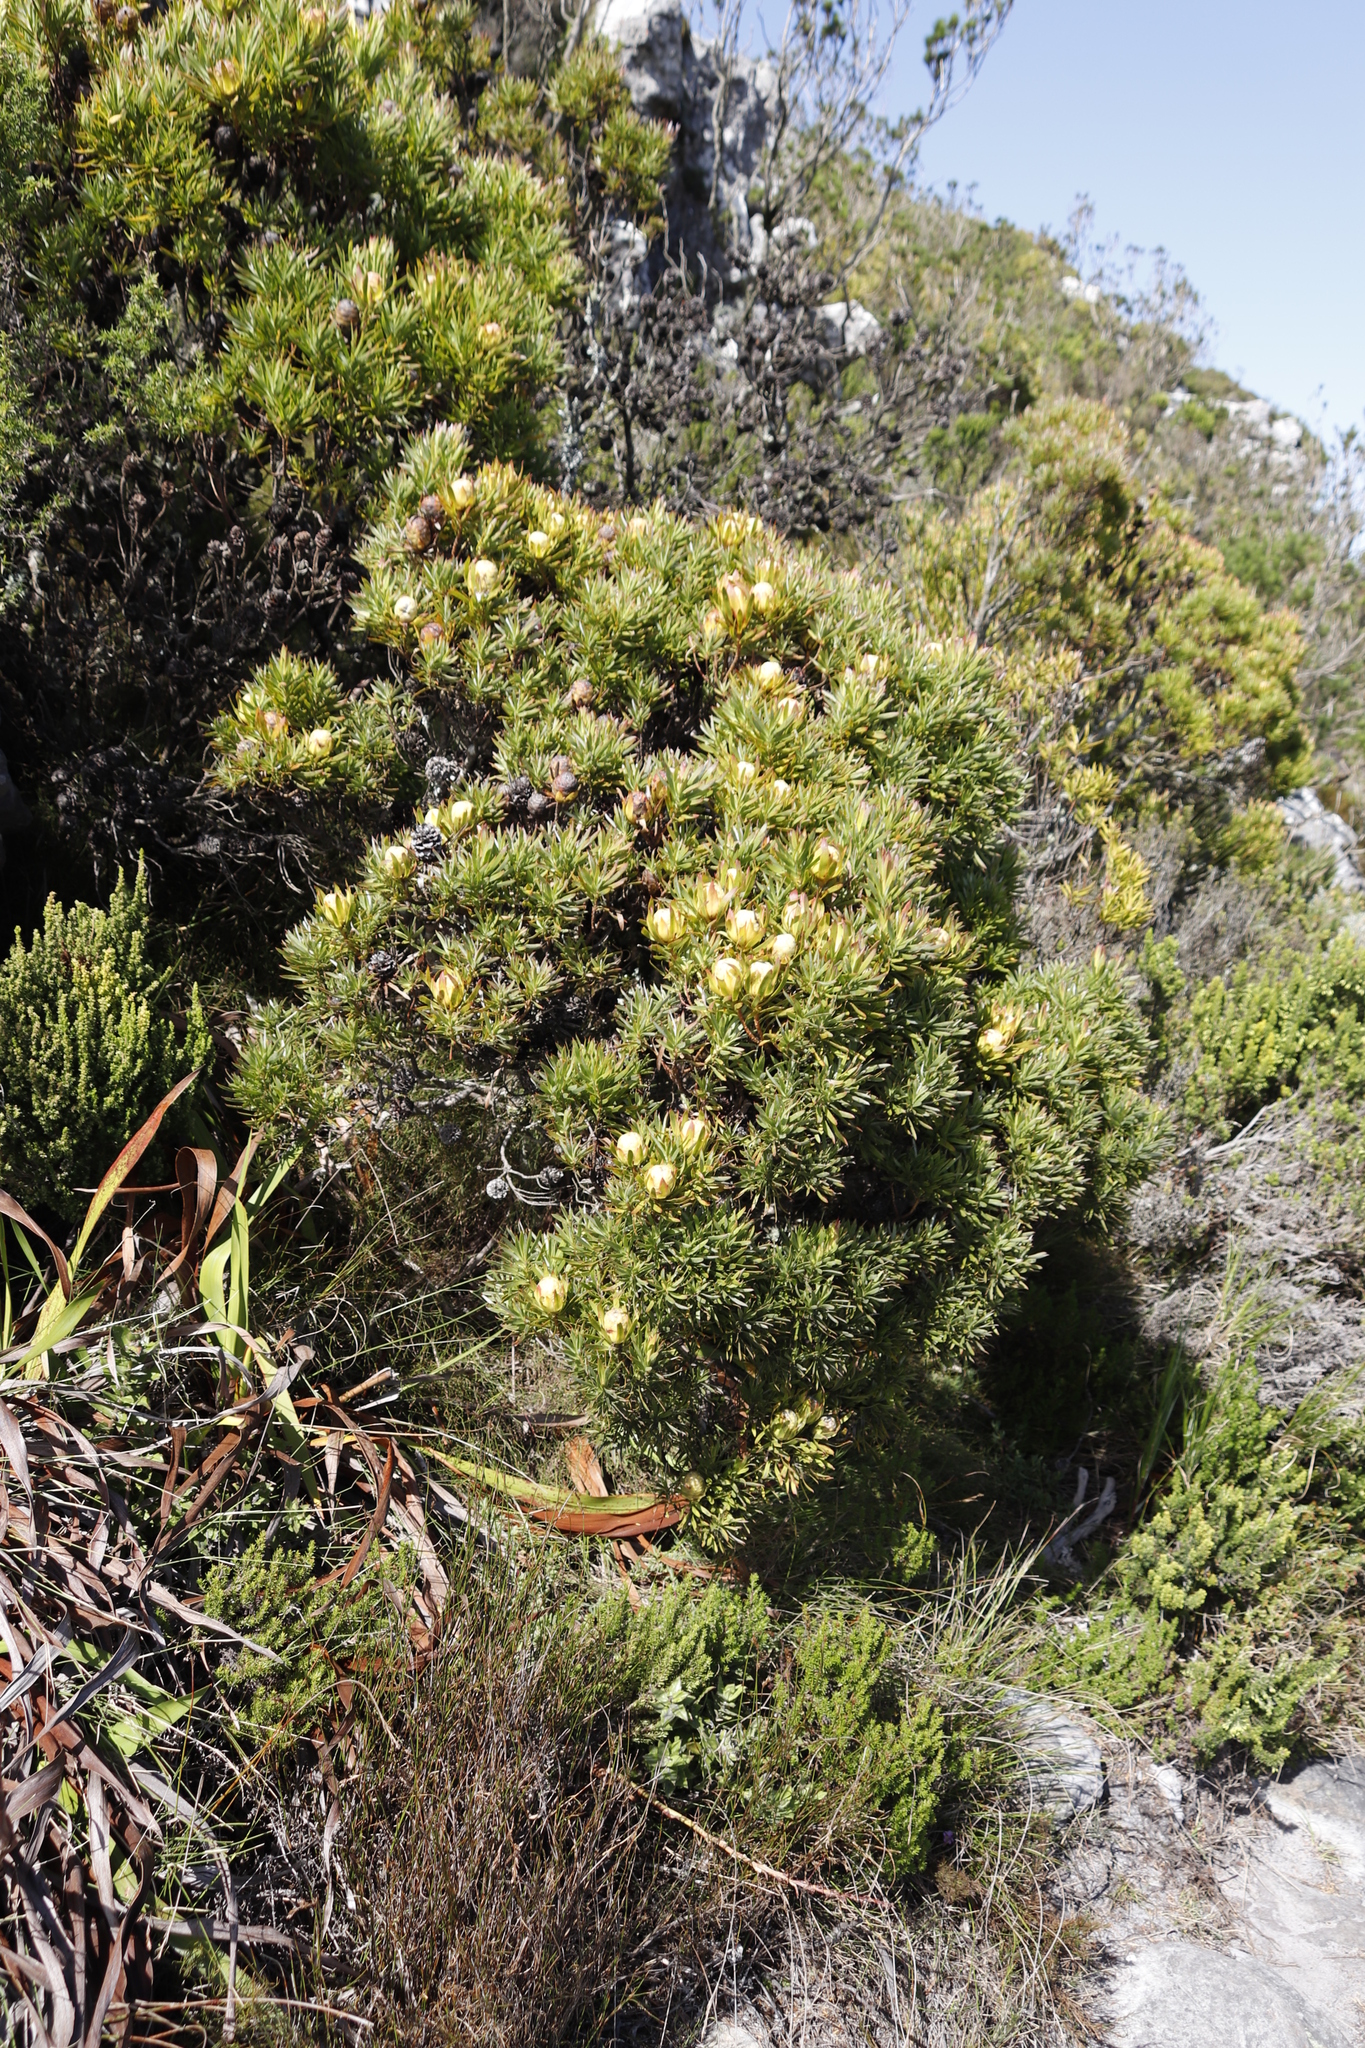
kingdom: Plantae
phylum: Tracheophyta
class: Magnoliopsida
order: Proteales
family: Proteaceae
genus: Leucadendron
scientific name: Leucadendron xanthoconus
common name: Sickle-leaf conebush
